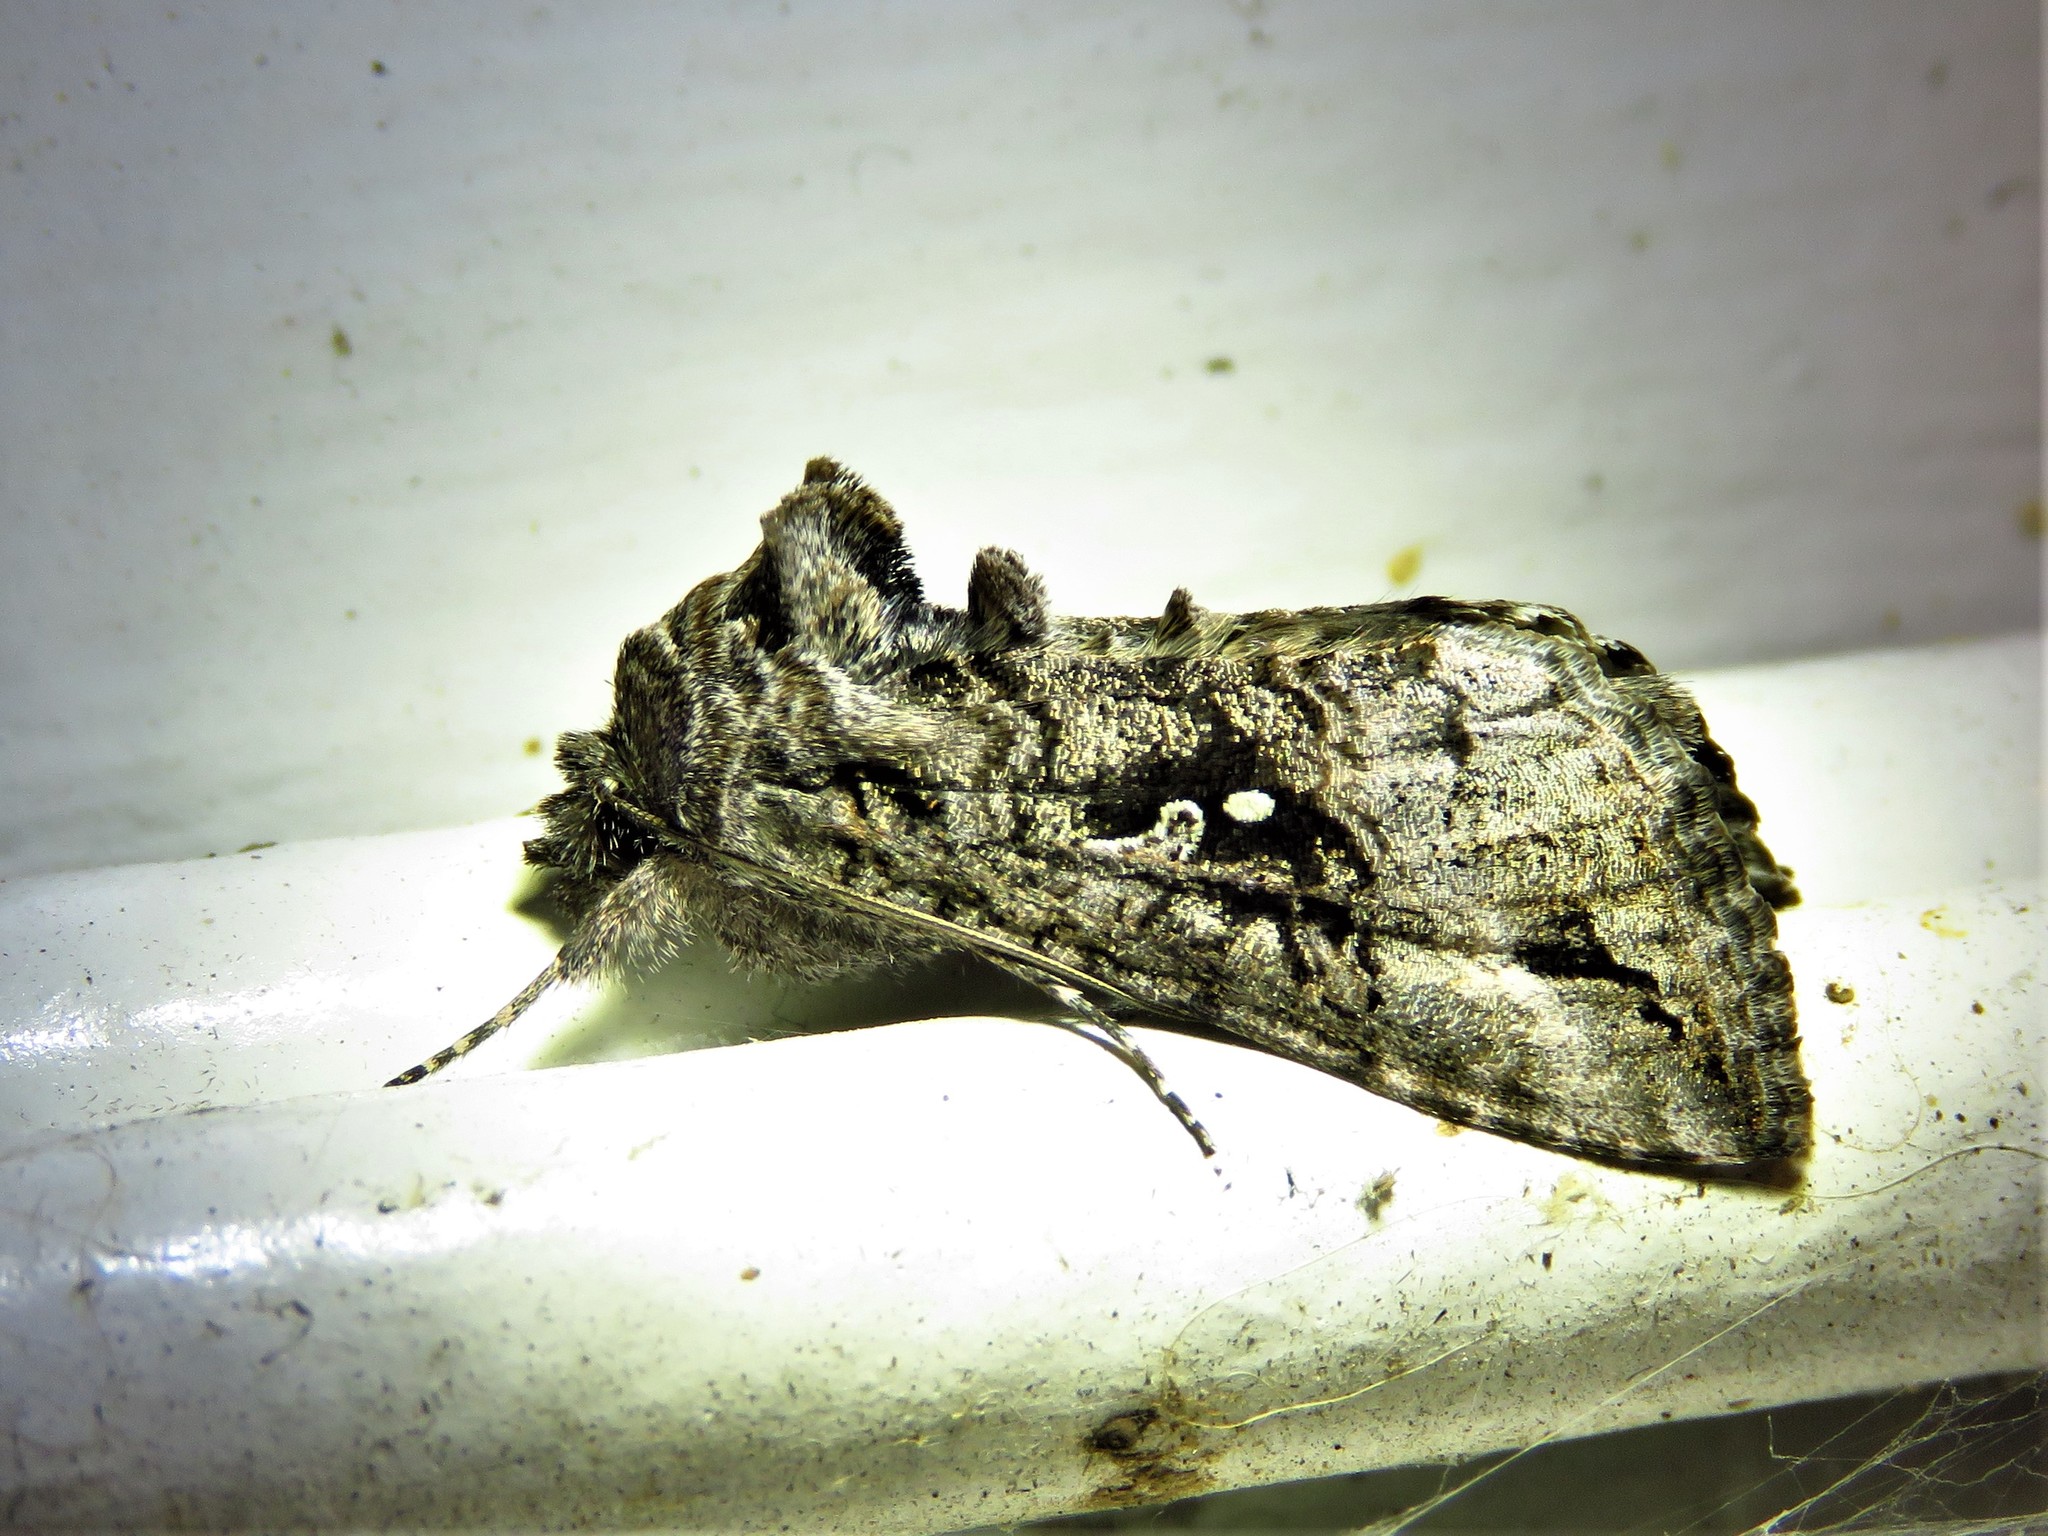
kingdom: Animalia
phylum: Arthropoda
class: Insecta
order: Lepidoptera
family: Noctuidae
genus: Rachiplusia
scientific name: Rachiplusia ou
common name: Gray looper moth
